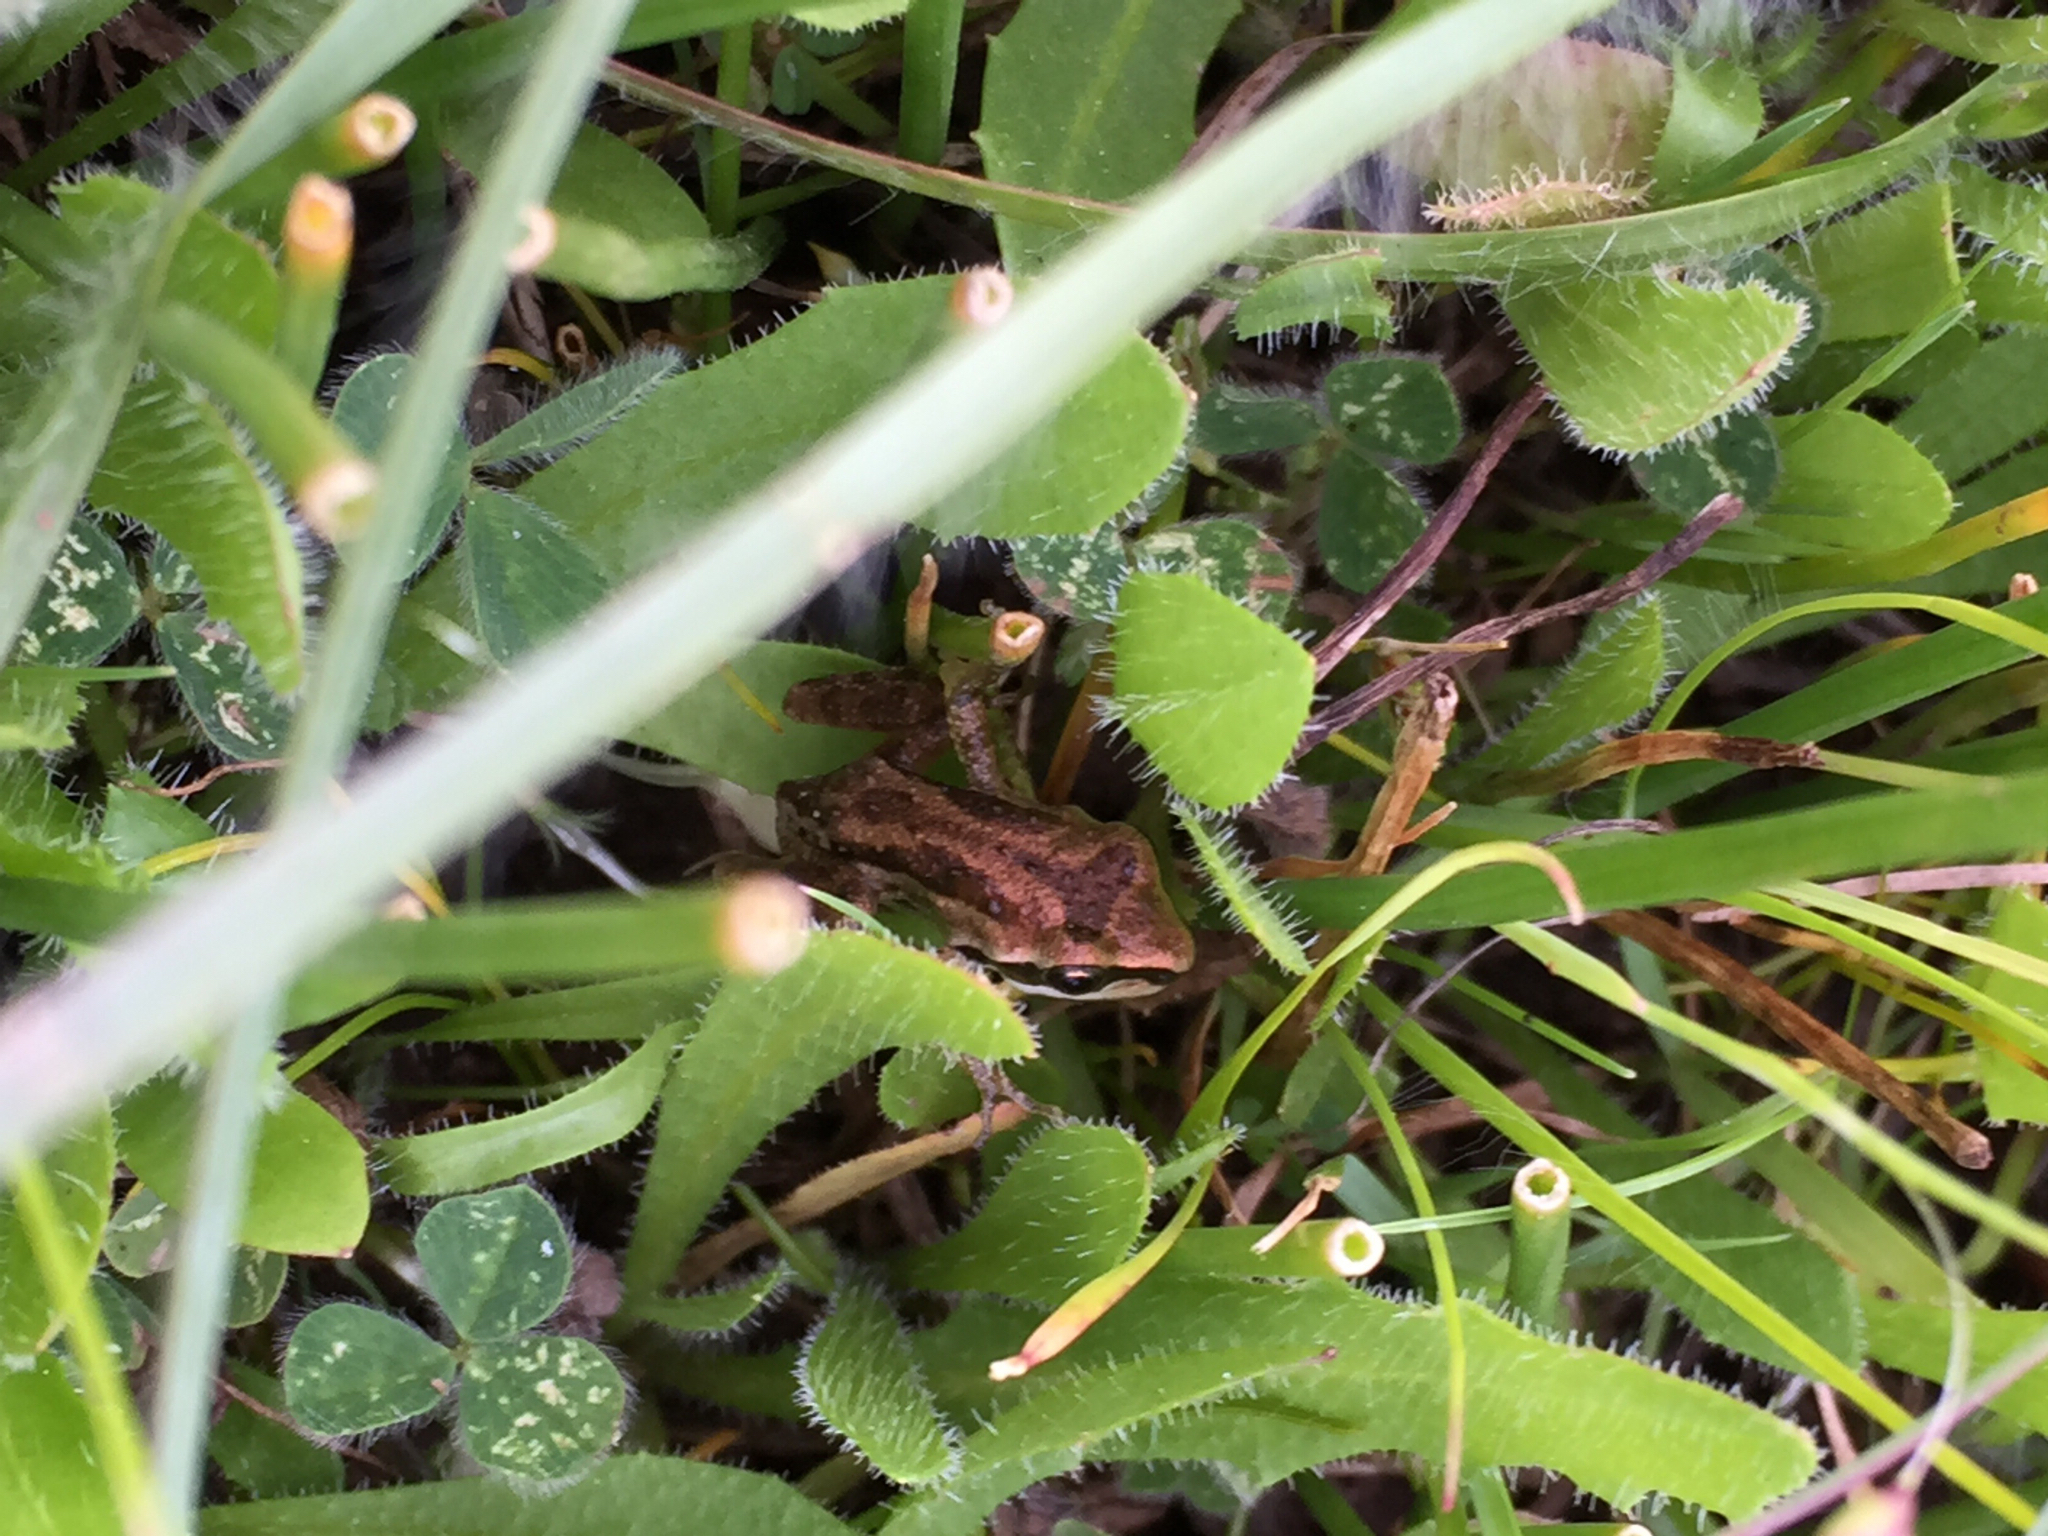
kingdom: Animalia
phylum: Chordata
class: Amphibia
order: Anura
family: Hylidae
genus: Pseudacris
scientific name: Pseudacris regilla
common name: Pacific chorus frog
